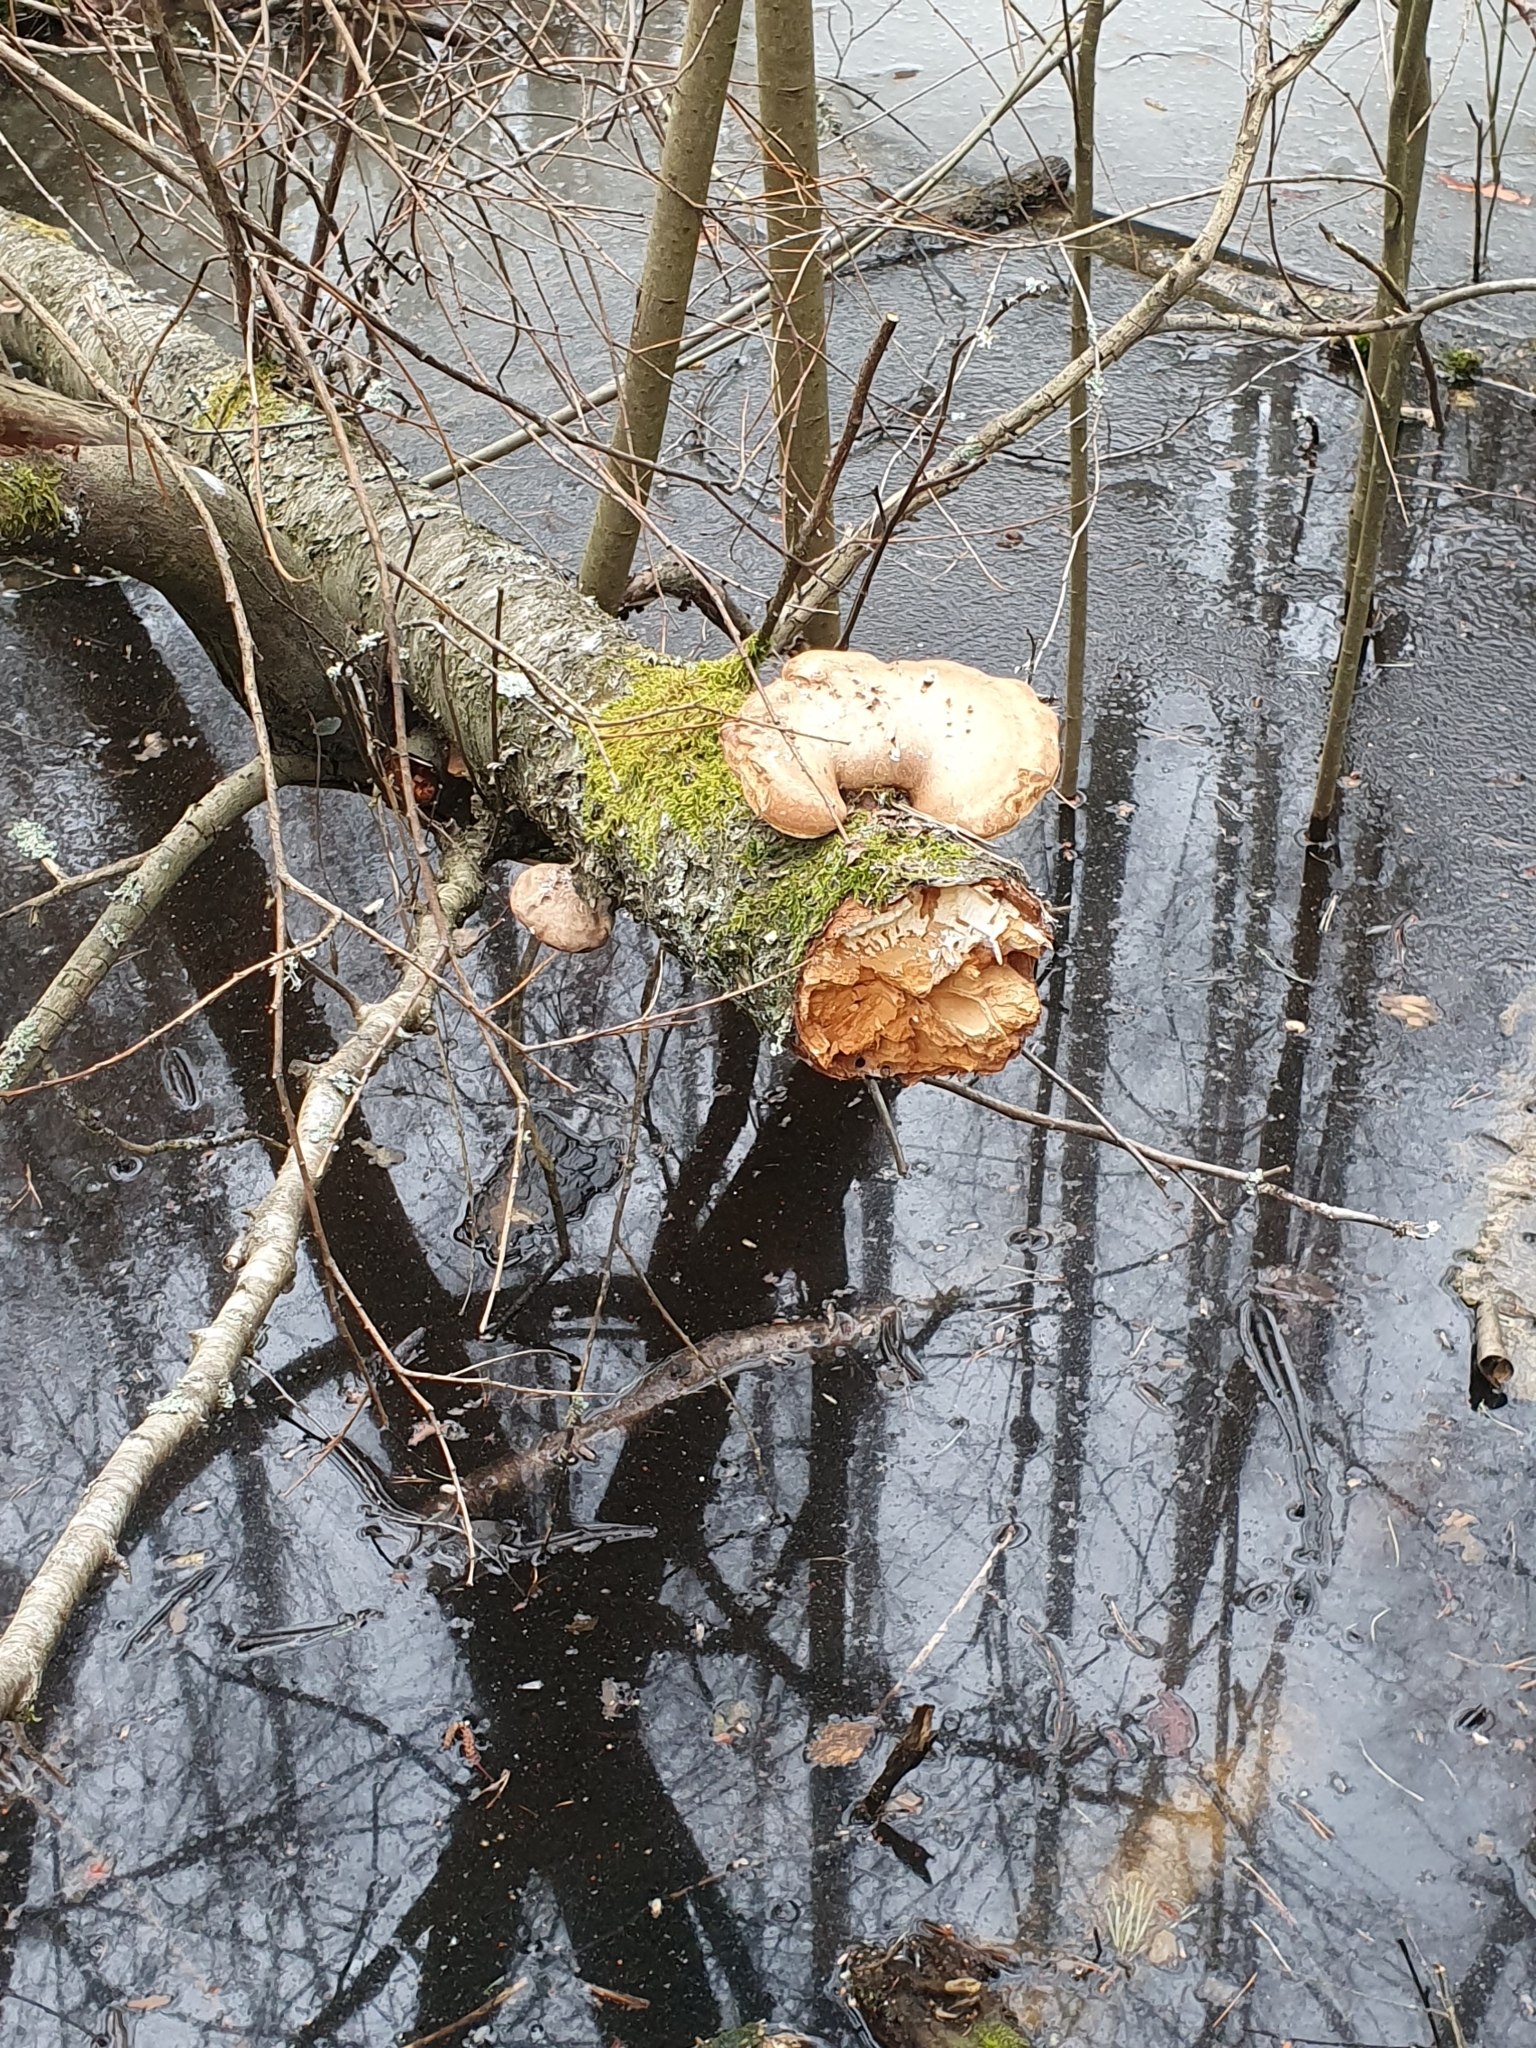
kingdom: Fungi
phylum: Basidiomycota
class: Agaricomycetes
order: Polyporales
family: Fomitopsidaceae
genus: Fomitopsis
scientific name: Fomitopsis betulina
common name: Birch polypore
